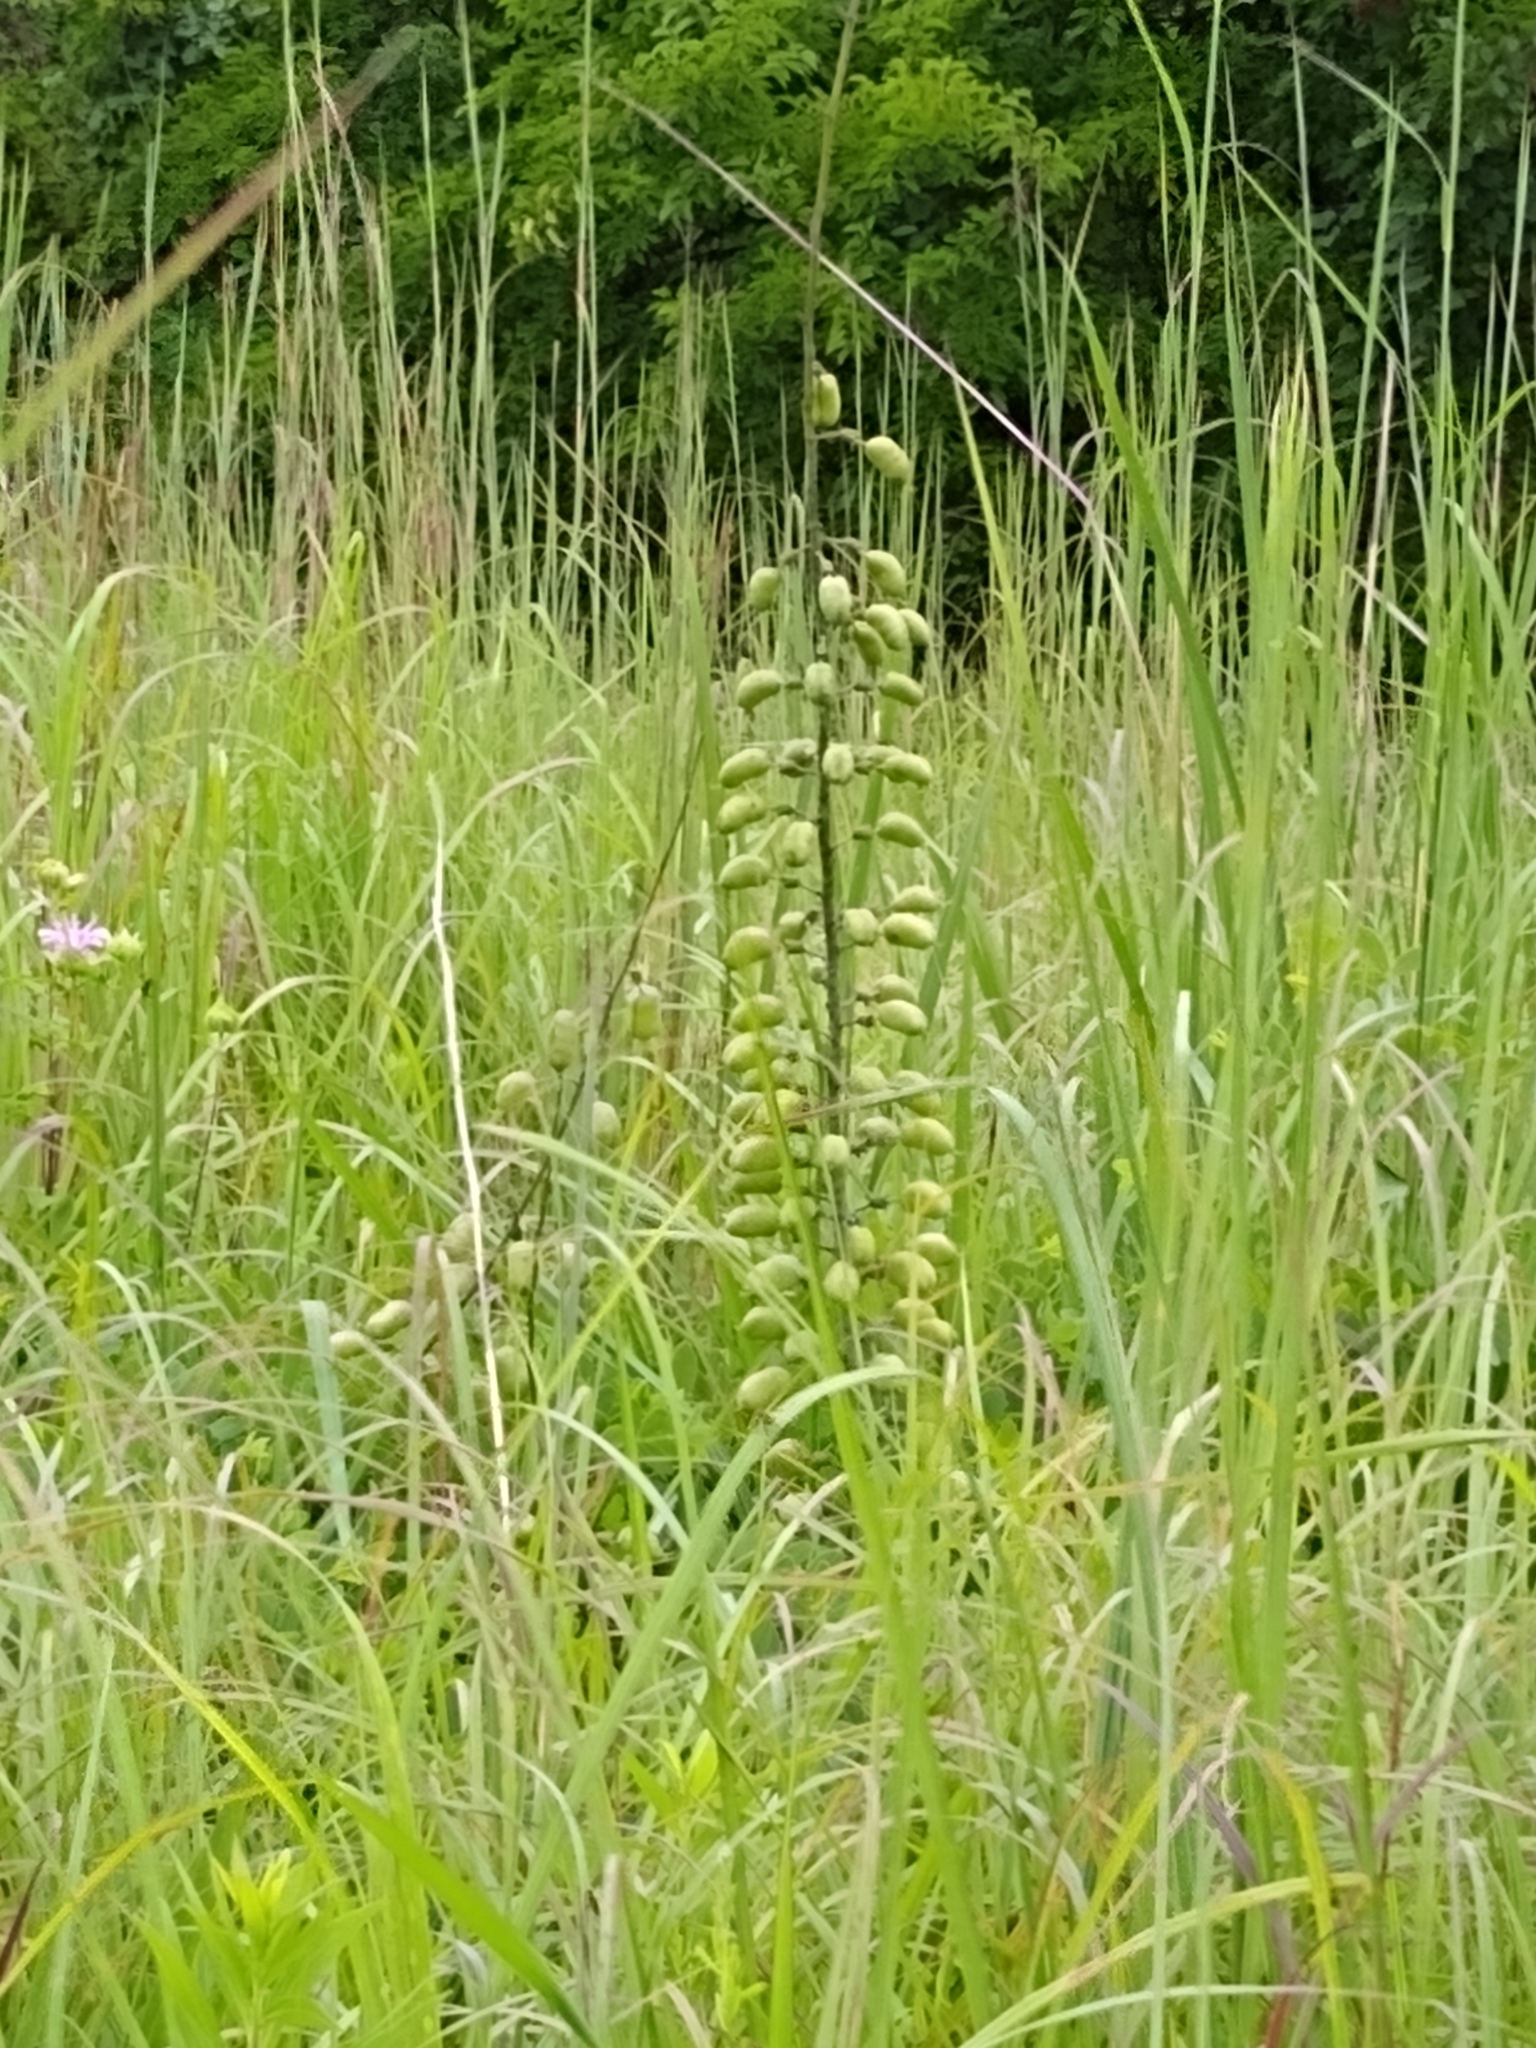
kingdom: Plantae
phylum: Tracheophyta
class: Magnoliopsida
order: Fabales
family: Fabaceae
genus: Baptisia
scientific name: Baptisia alba
